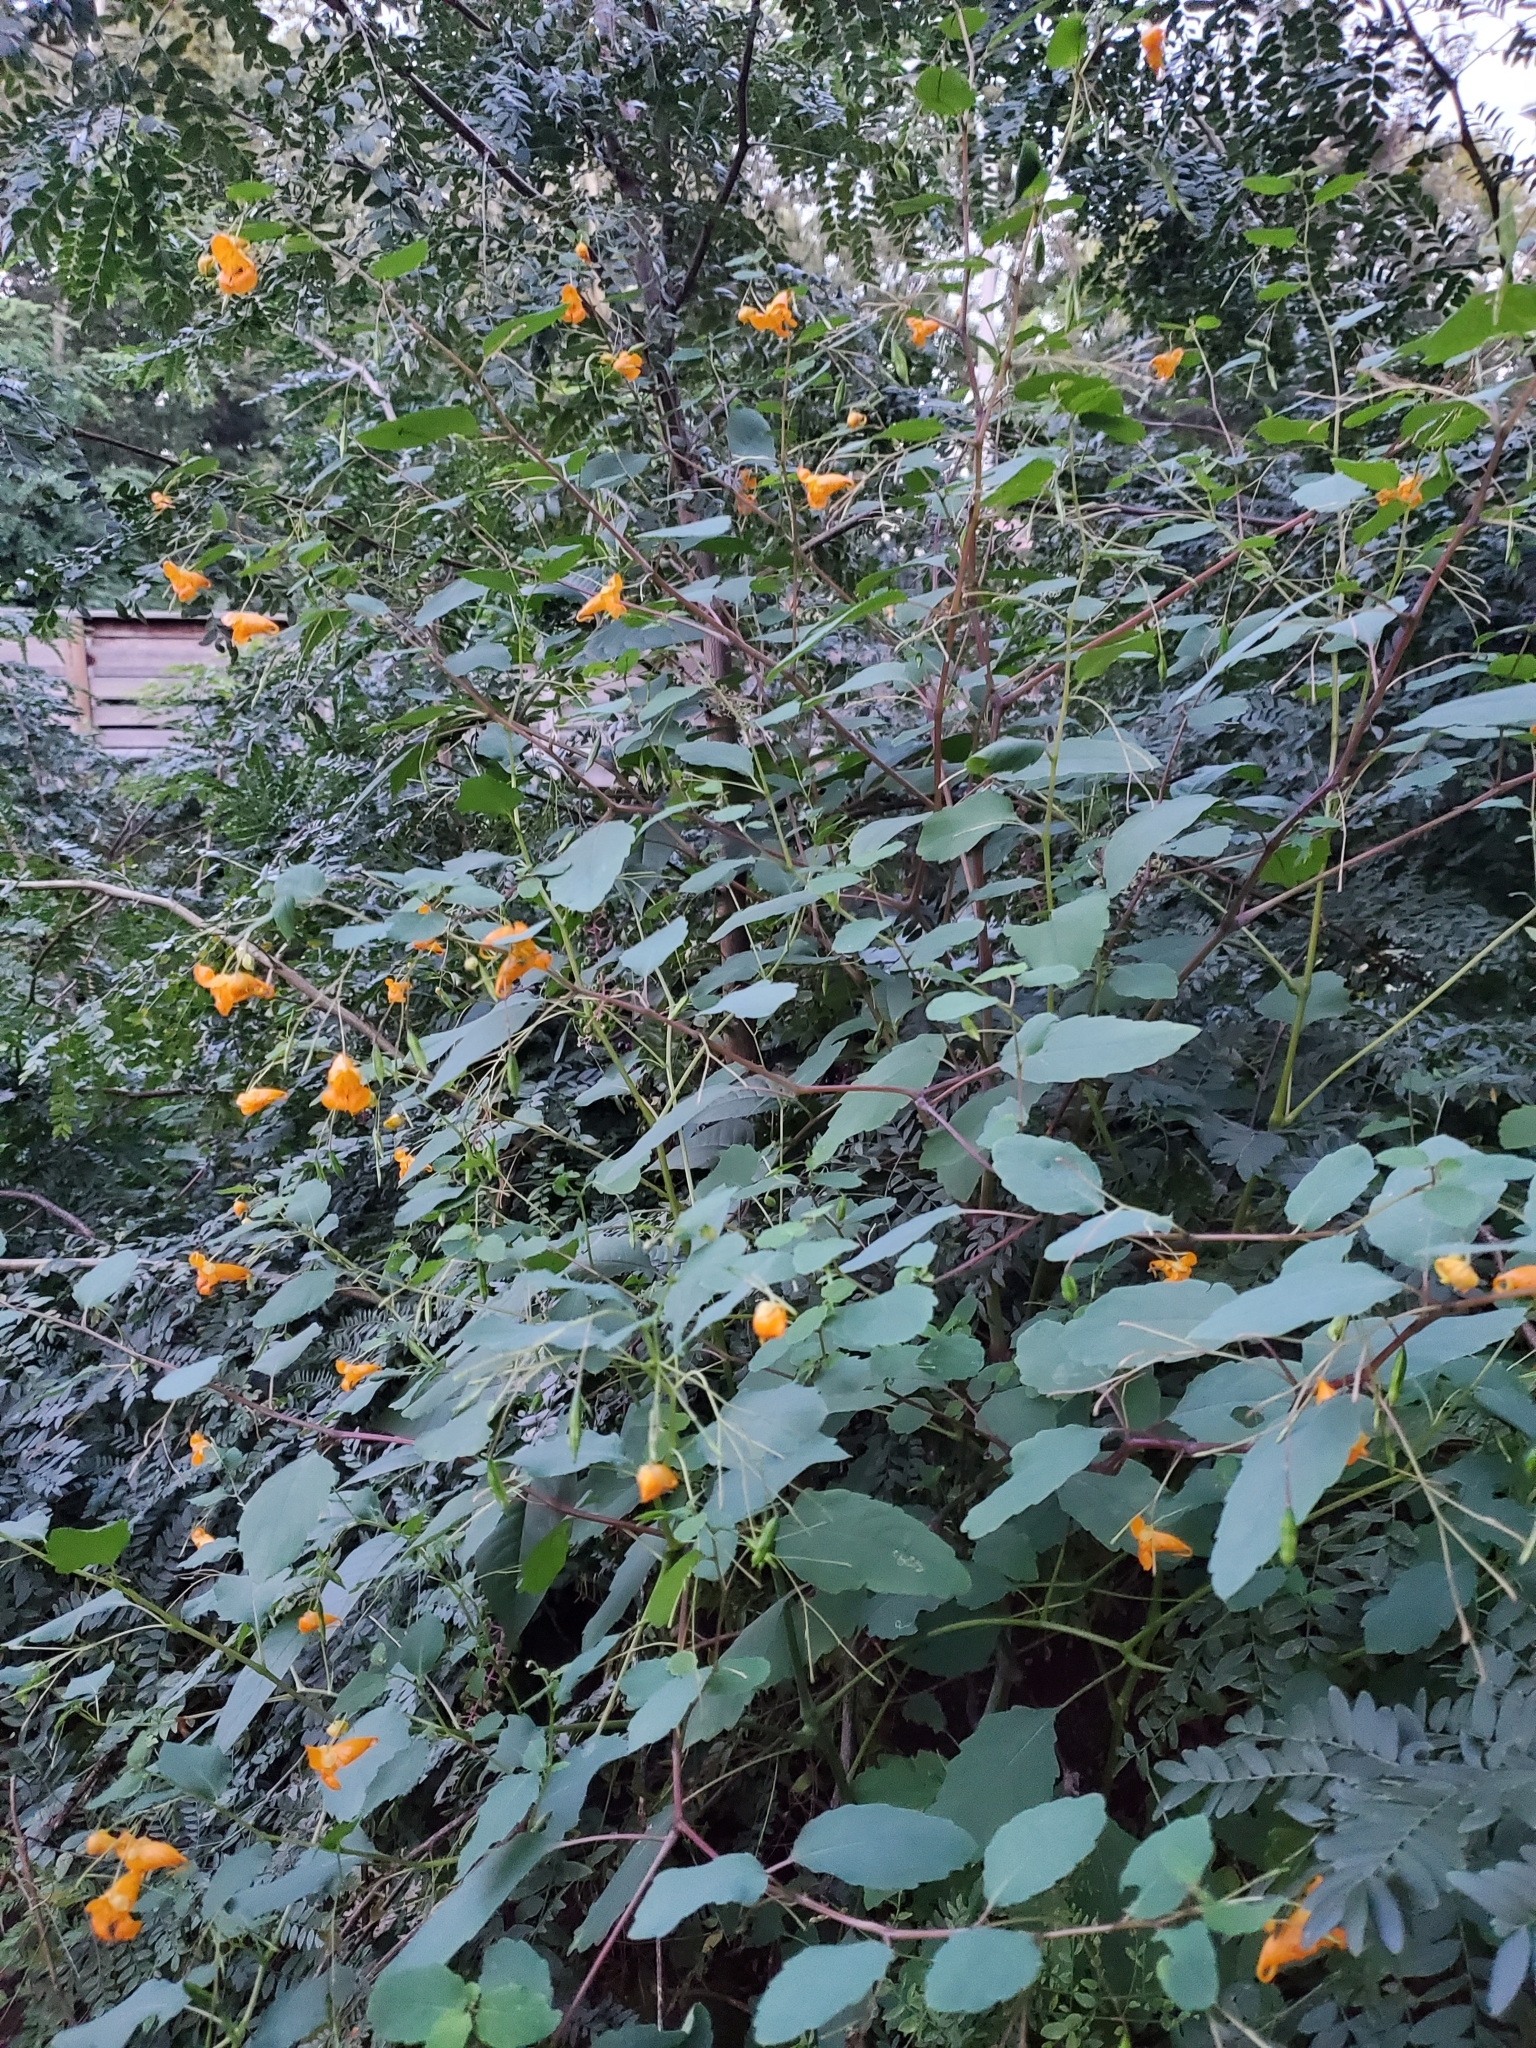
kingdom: Plantae
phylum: Tracheophyta
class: Magnoliopsida
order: Ericales
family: Balsaminaceae
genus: Impatiens
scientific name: Impatiens capensis
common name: Orange balsam
